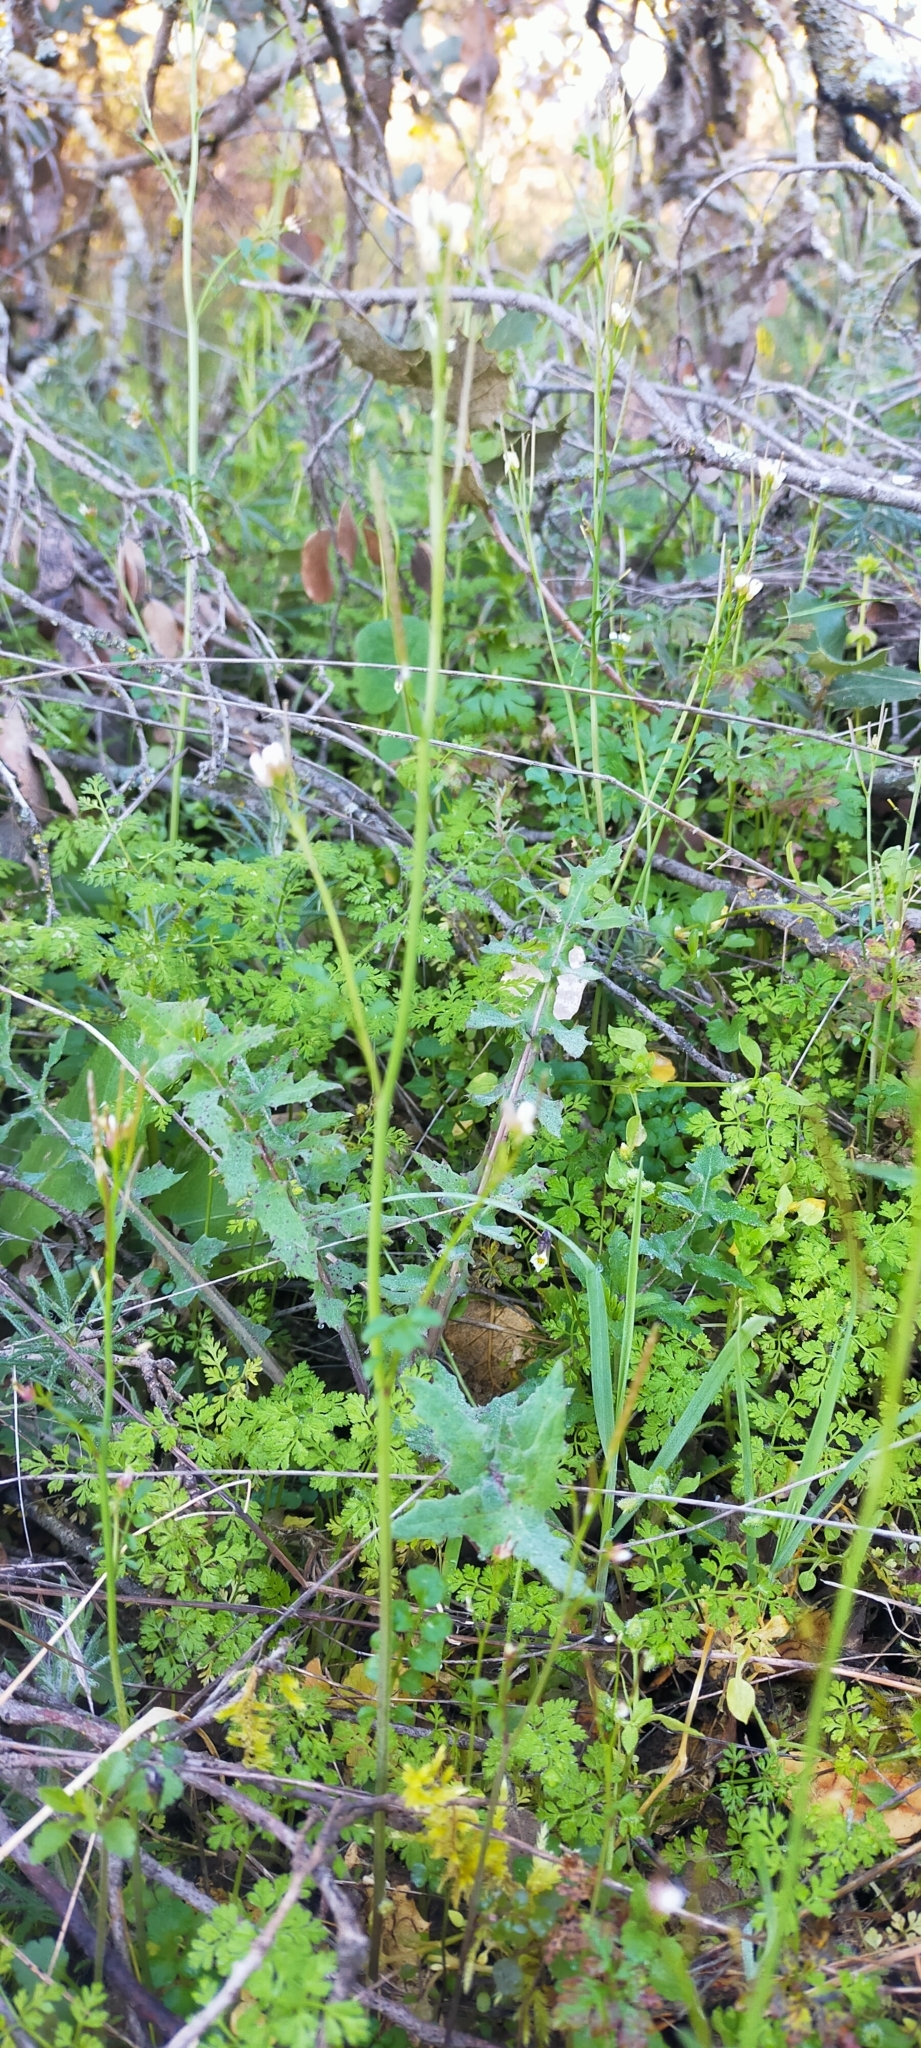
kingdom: Plantae
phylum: Tracheophyta
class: Magnoliopsida
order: Brassicales
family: Brassicaceae
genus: Cardamine
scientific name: Cardamine hirsuta
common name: Hairy bittercress
